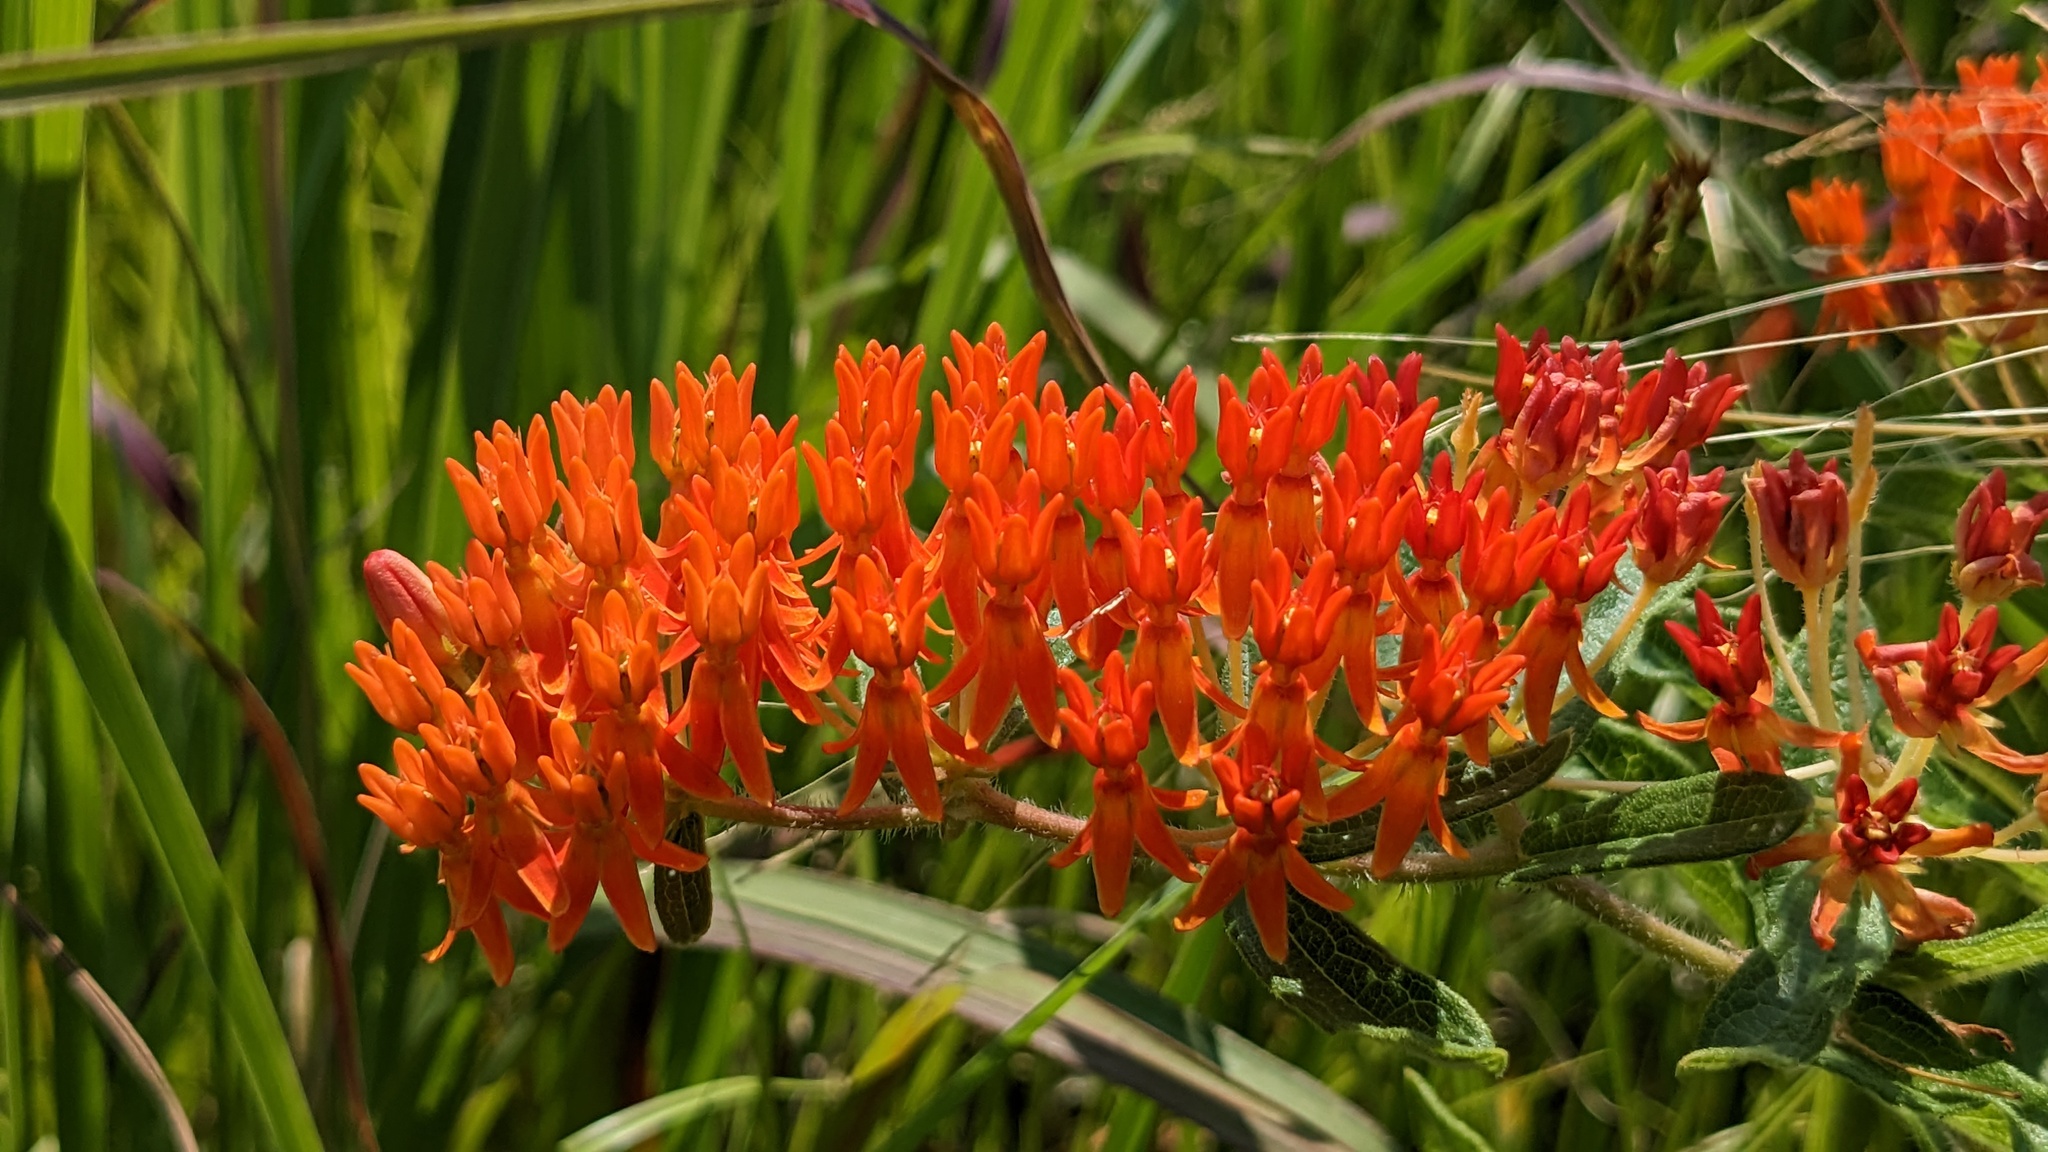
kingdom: Plantae
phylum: Tracheophyta
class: Magnoliopsida
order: Gentianales
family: Apocynaceae
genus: Asclepias
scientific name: Asclepias tuberosa
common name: Butterfly milkweed
